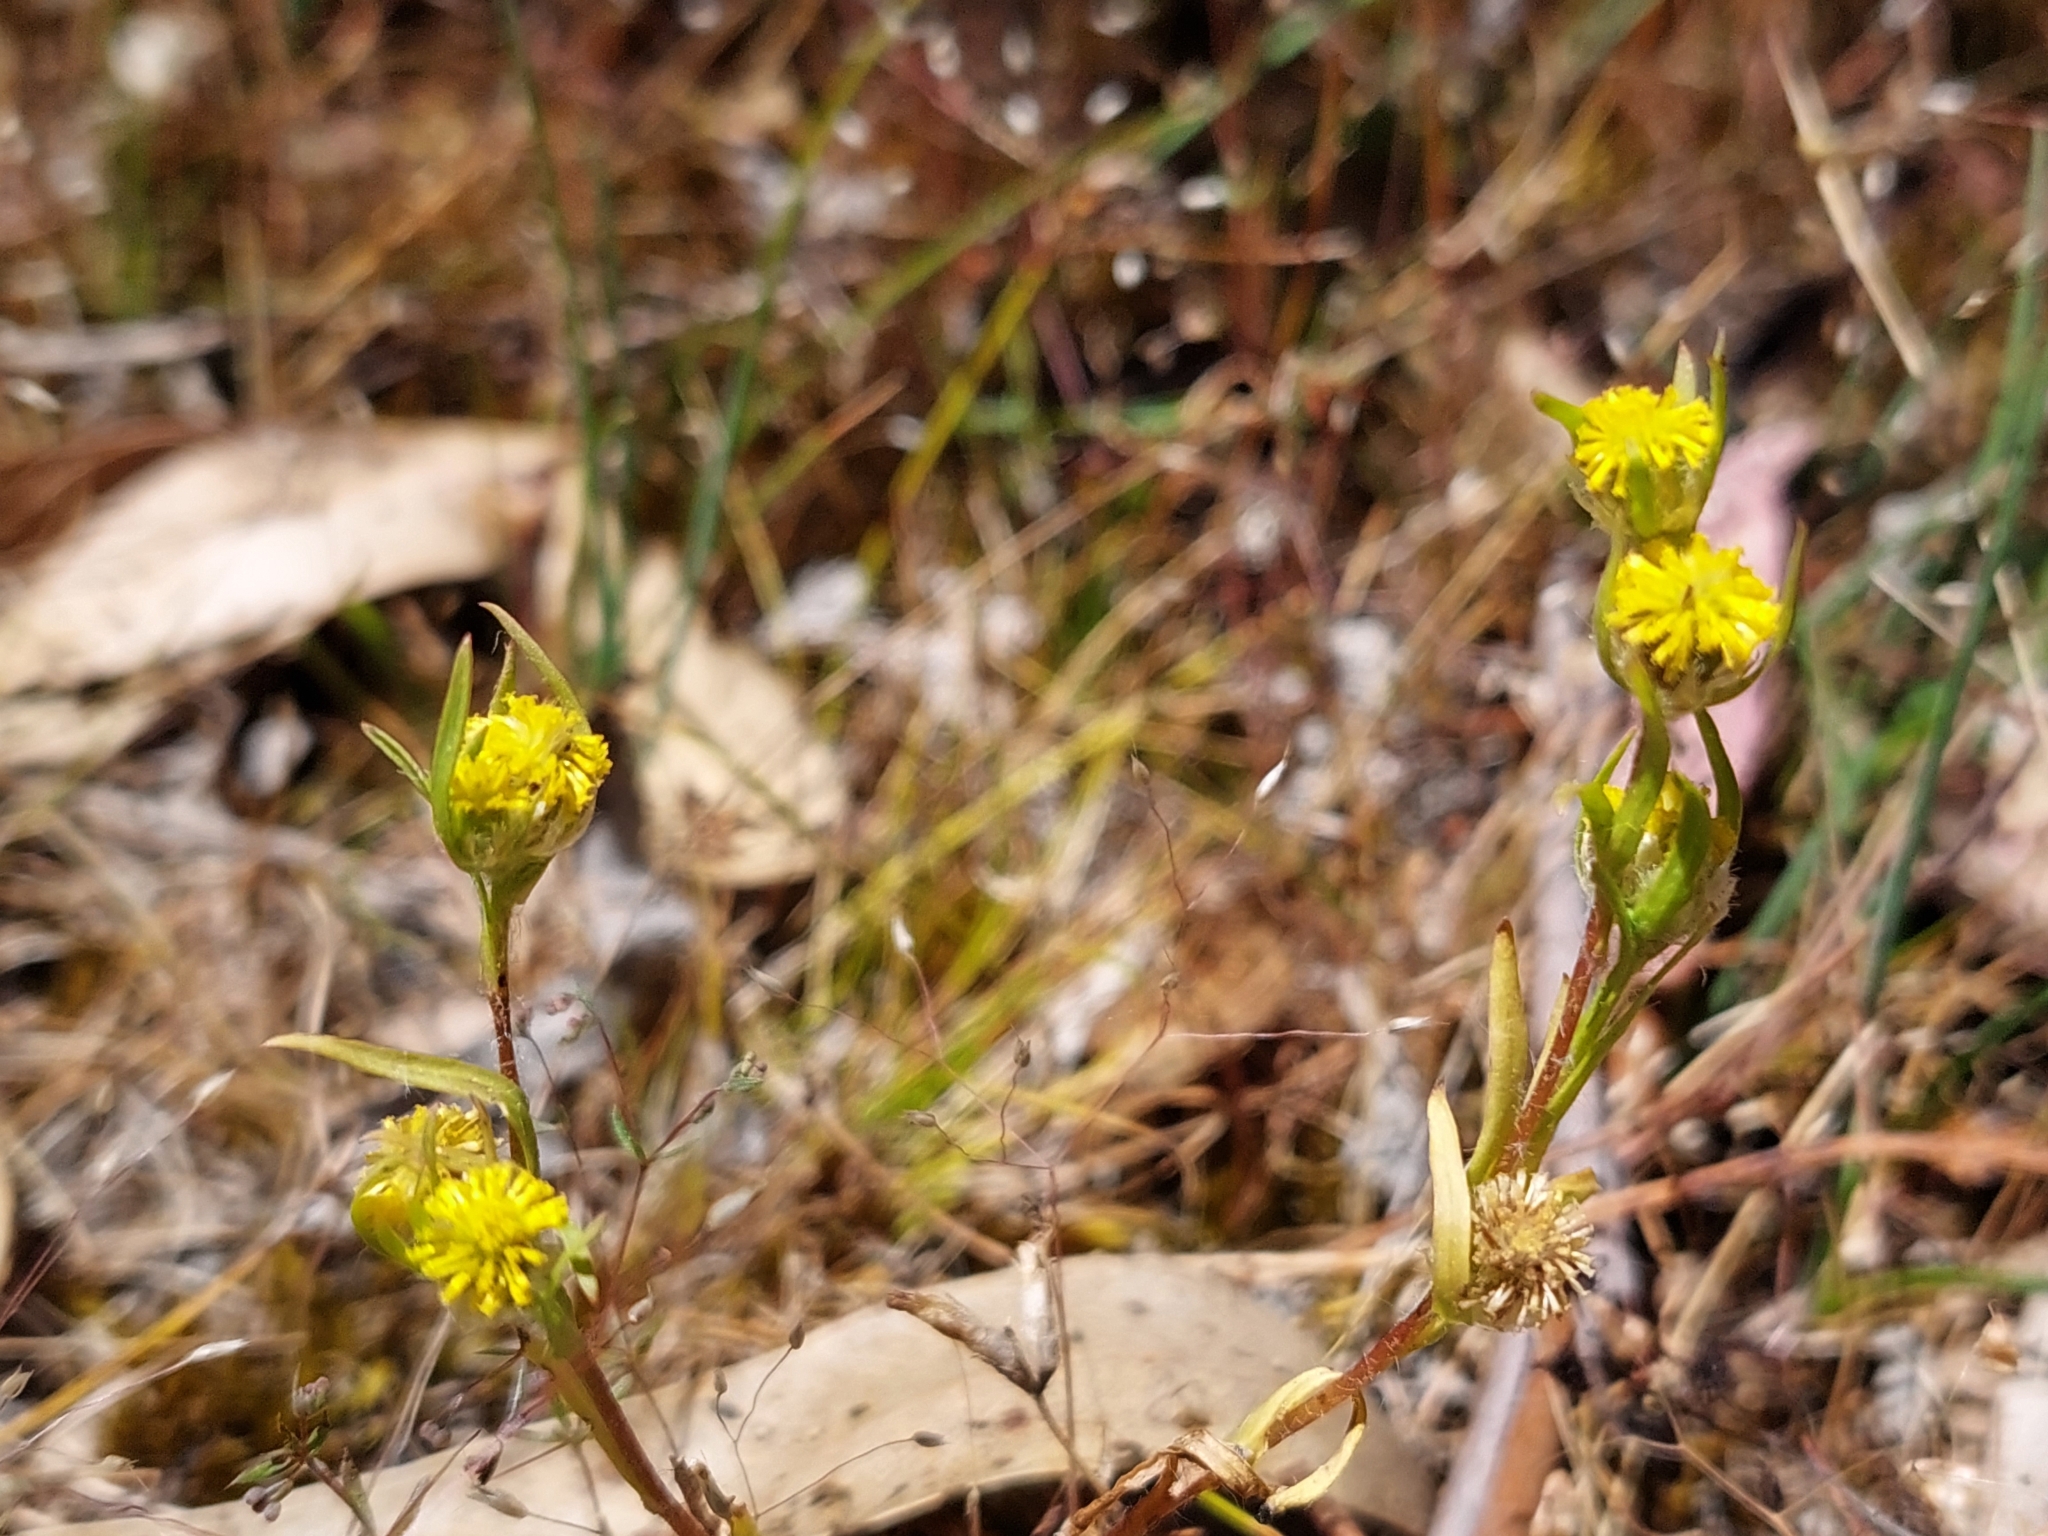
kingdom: Plantae
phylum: Tracheophyta
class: Magnoliopsida
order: Asterales
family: Asteraceae
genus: Triptilodiscus
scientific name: Triptilodiscus pygmaeus
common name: Common sunray
